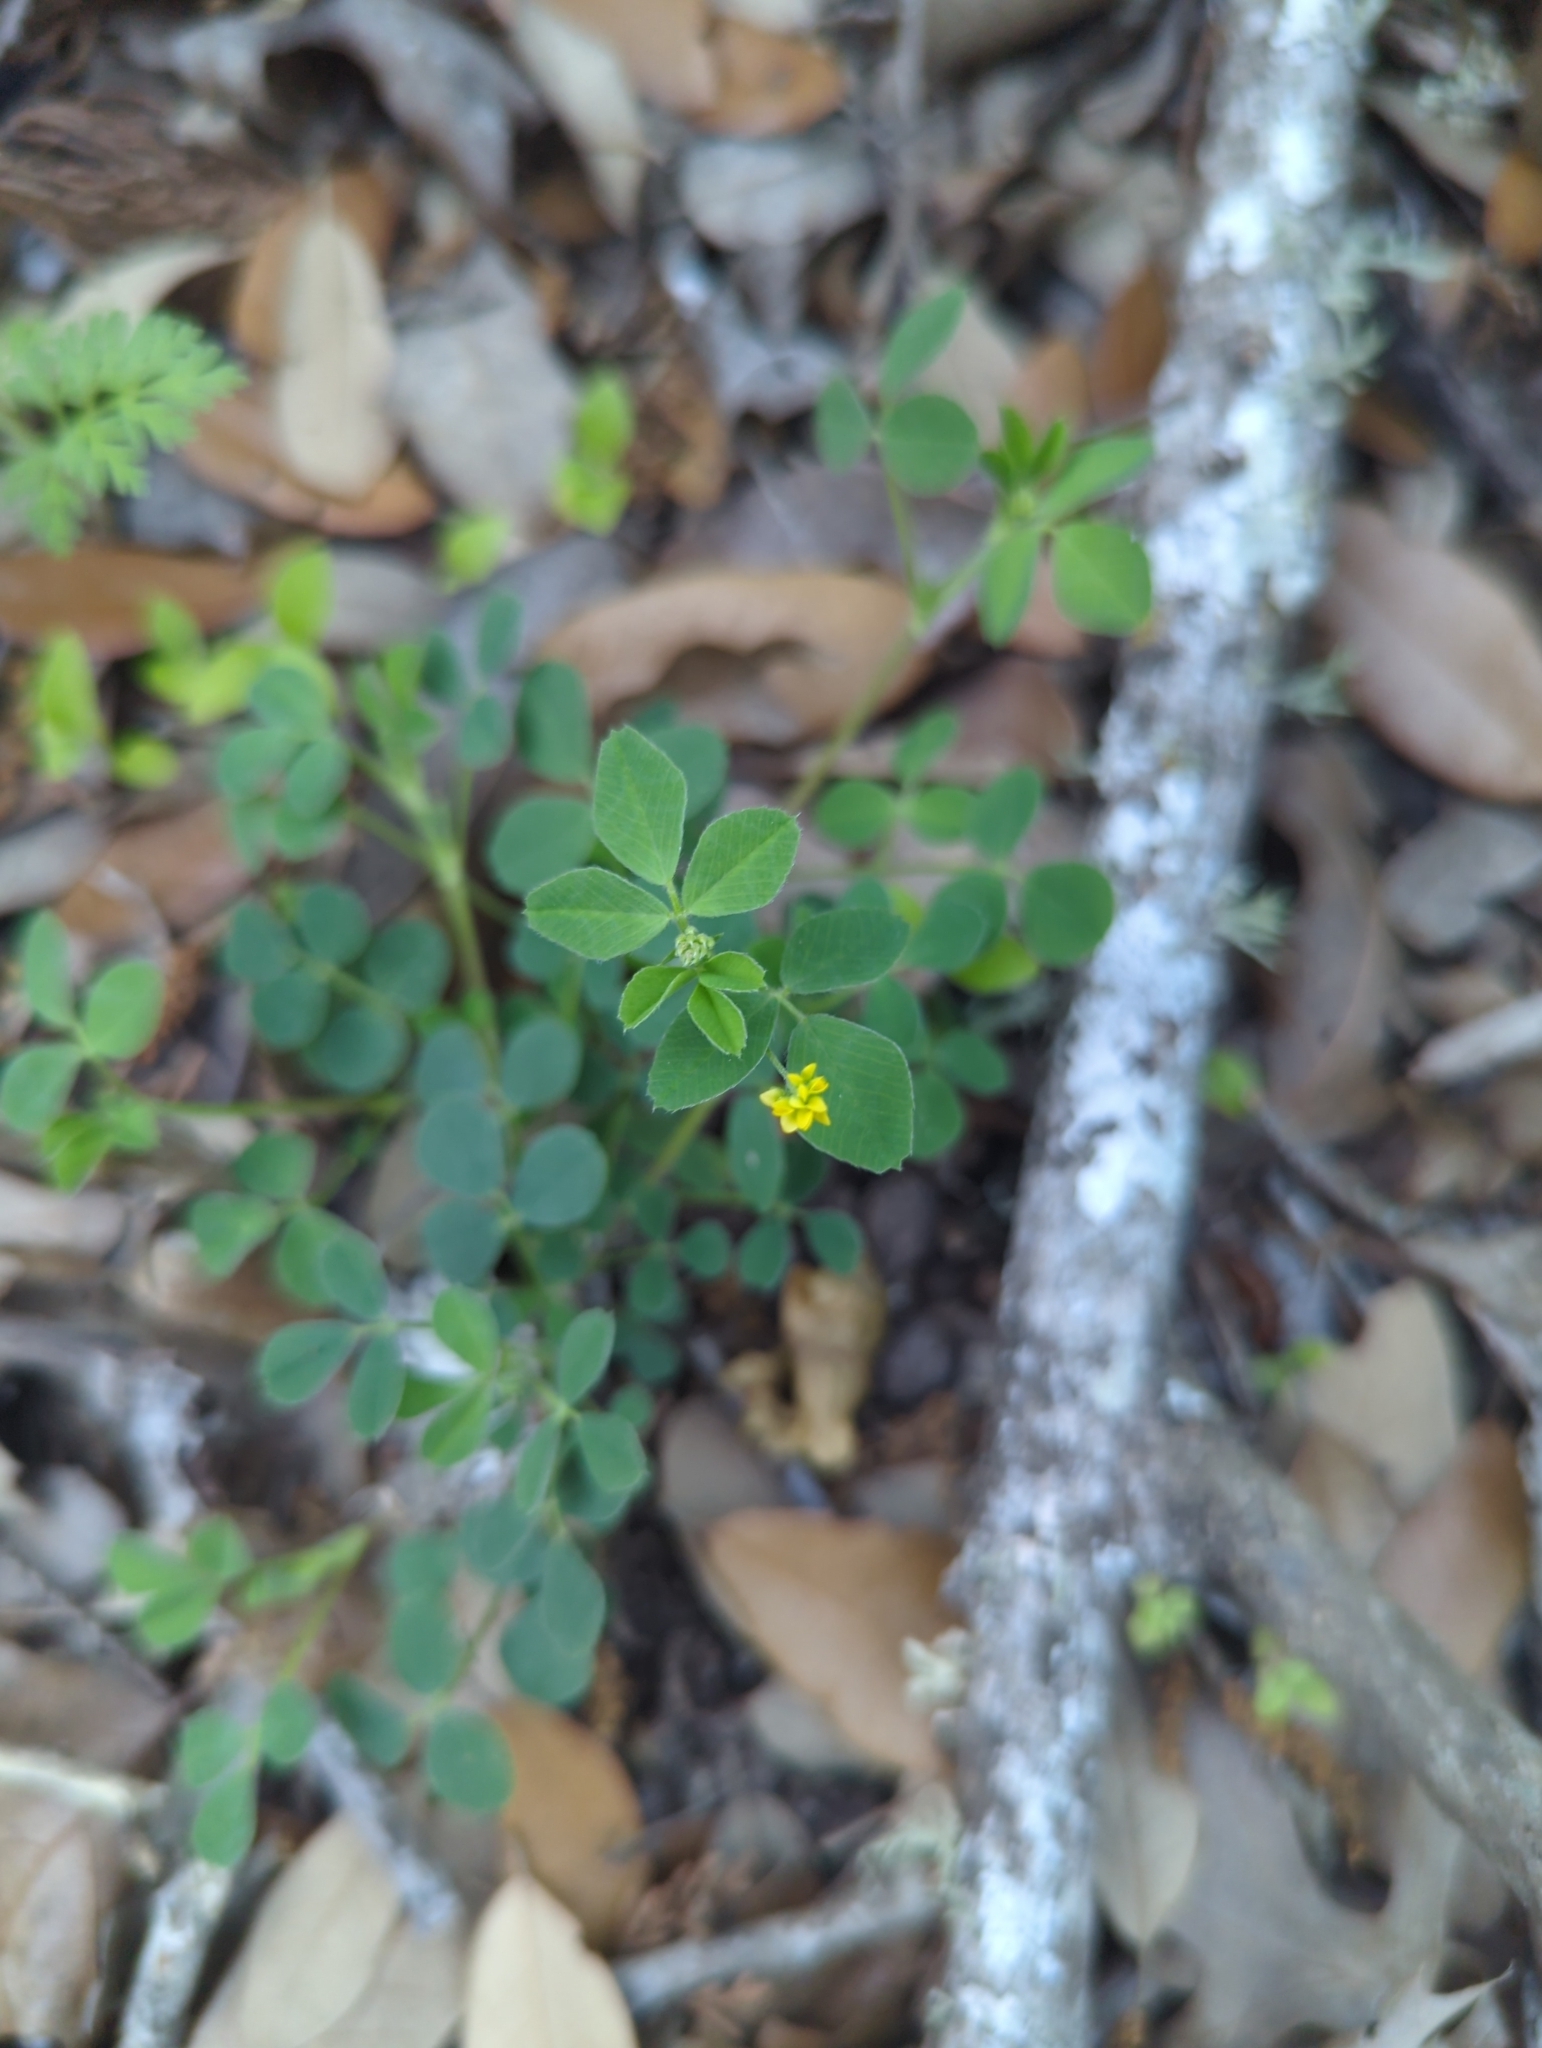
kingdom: Plantae
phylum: Tracheophyta
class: Magnoliopsida
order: Fabales
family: Fabaceae
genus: Medicago
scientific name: Medicago lupulina
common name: Black medick
